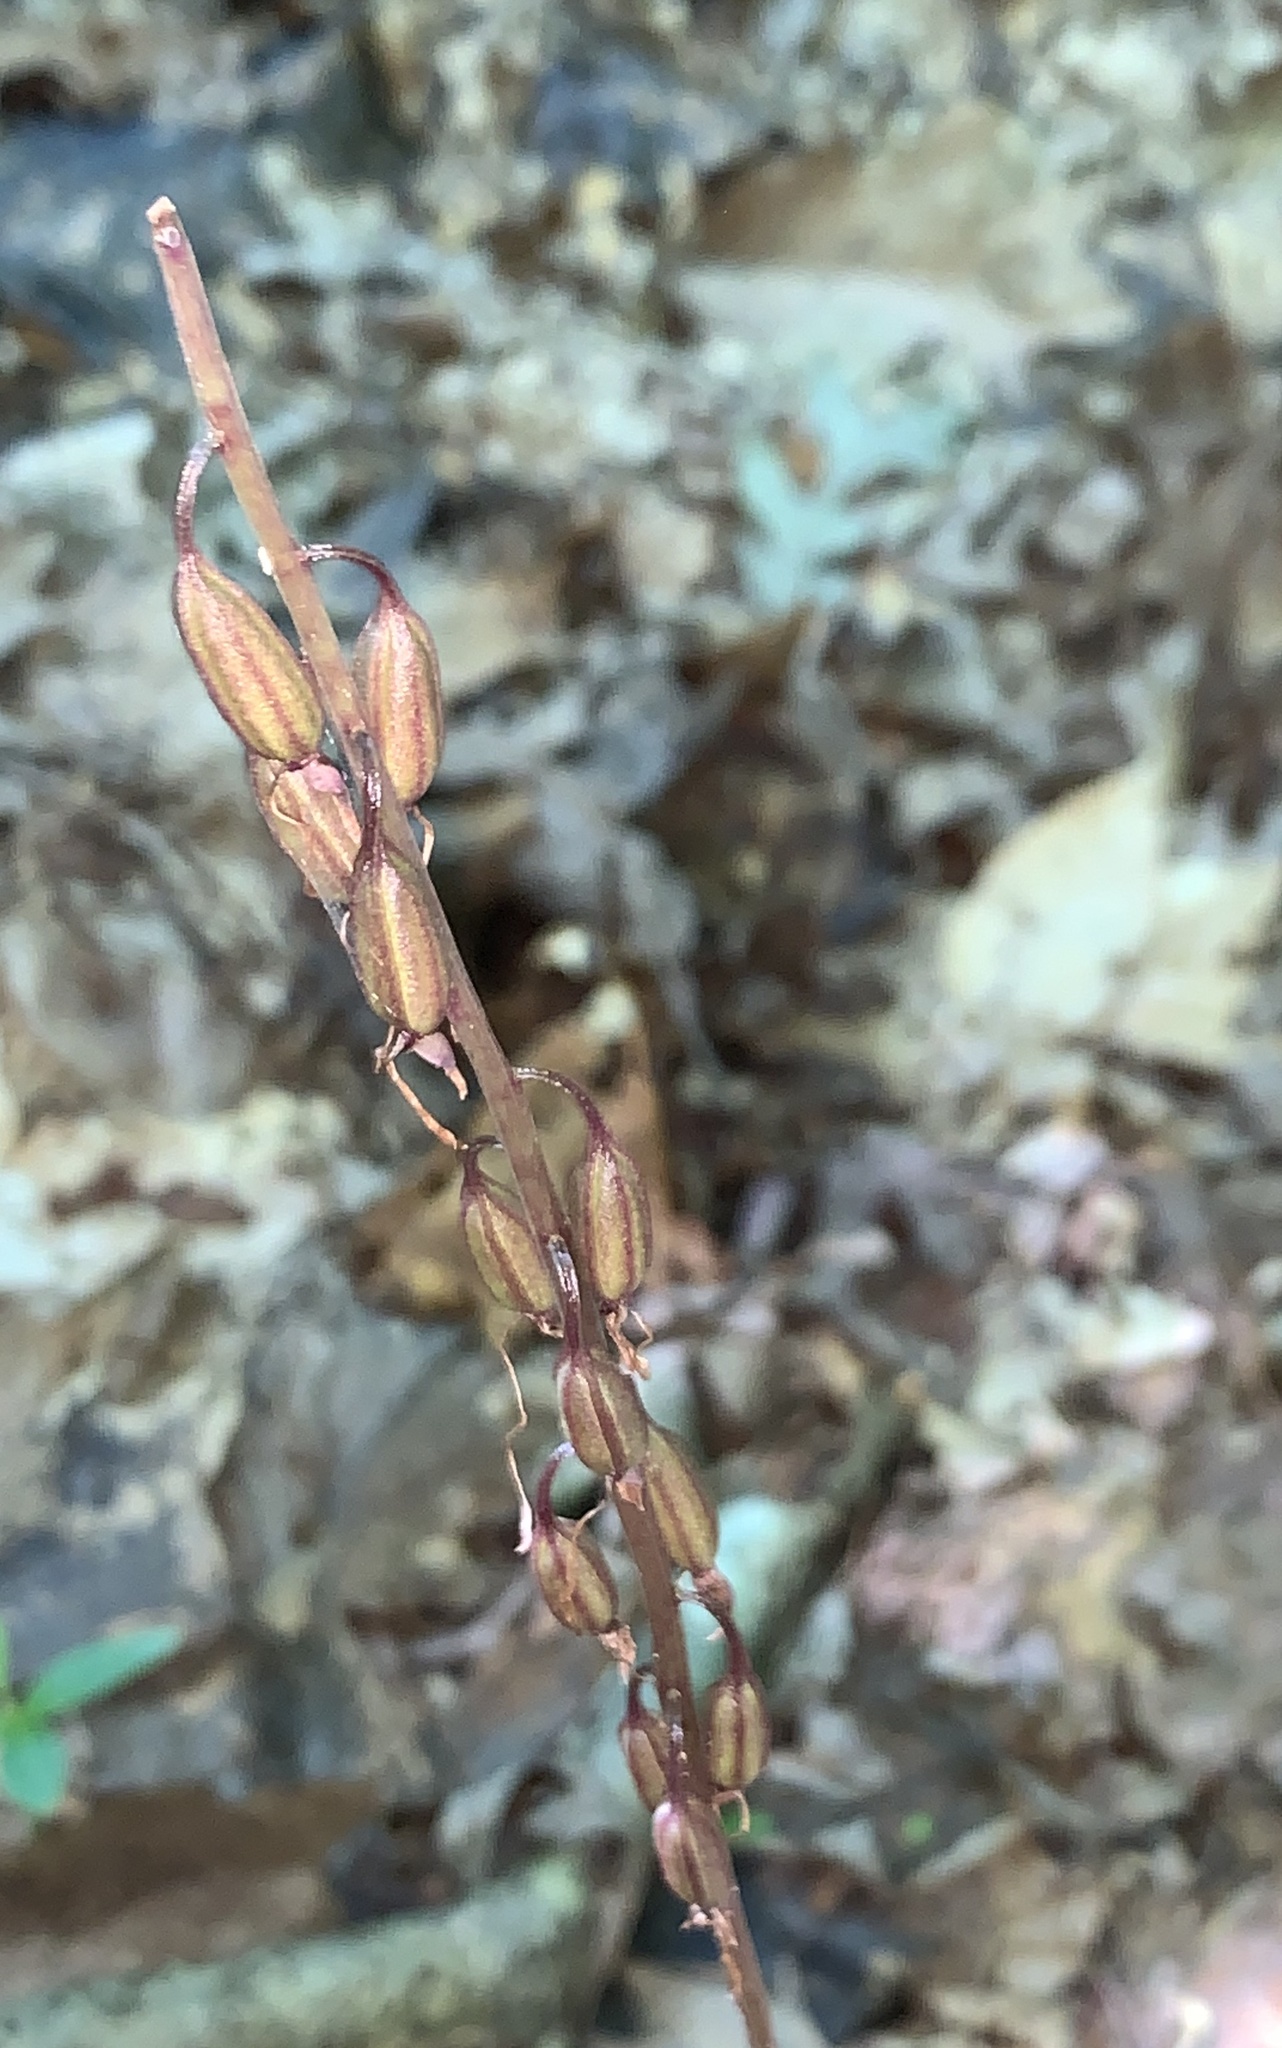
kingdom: Plantae
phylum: Tracheophyta
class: Liliopsida
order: Asparagales
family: Orchidaceae
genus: Tipularia
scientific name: Tipularia discolor
